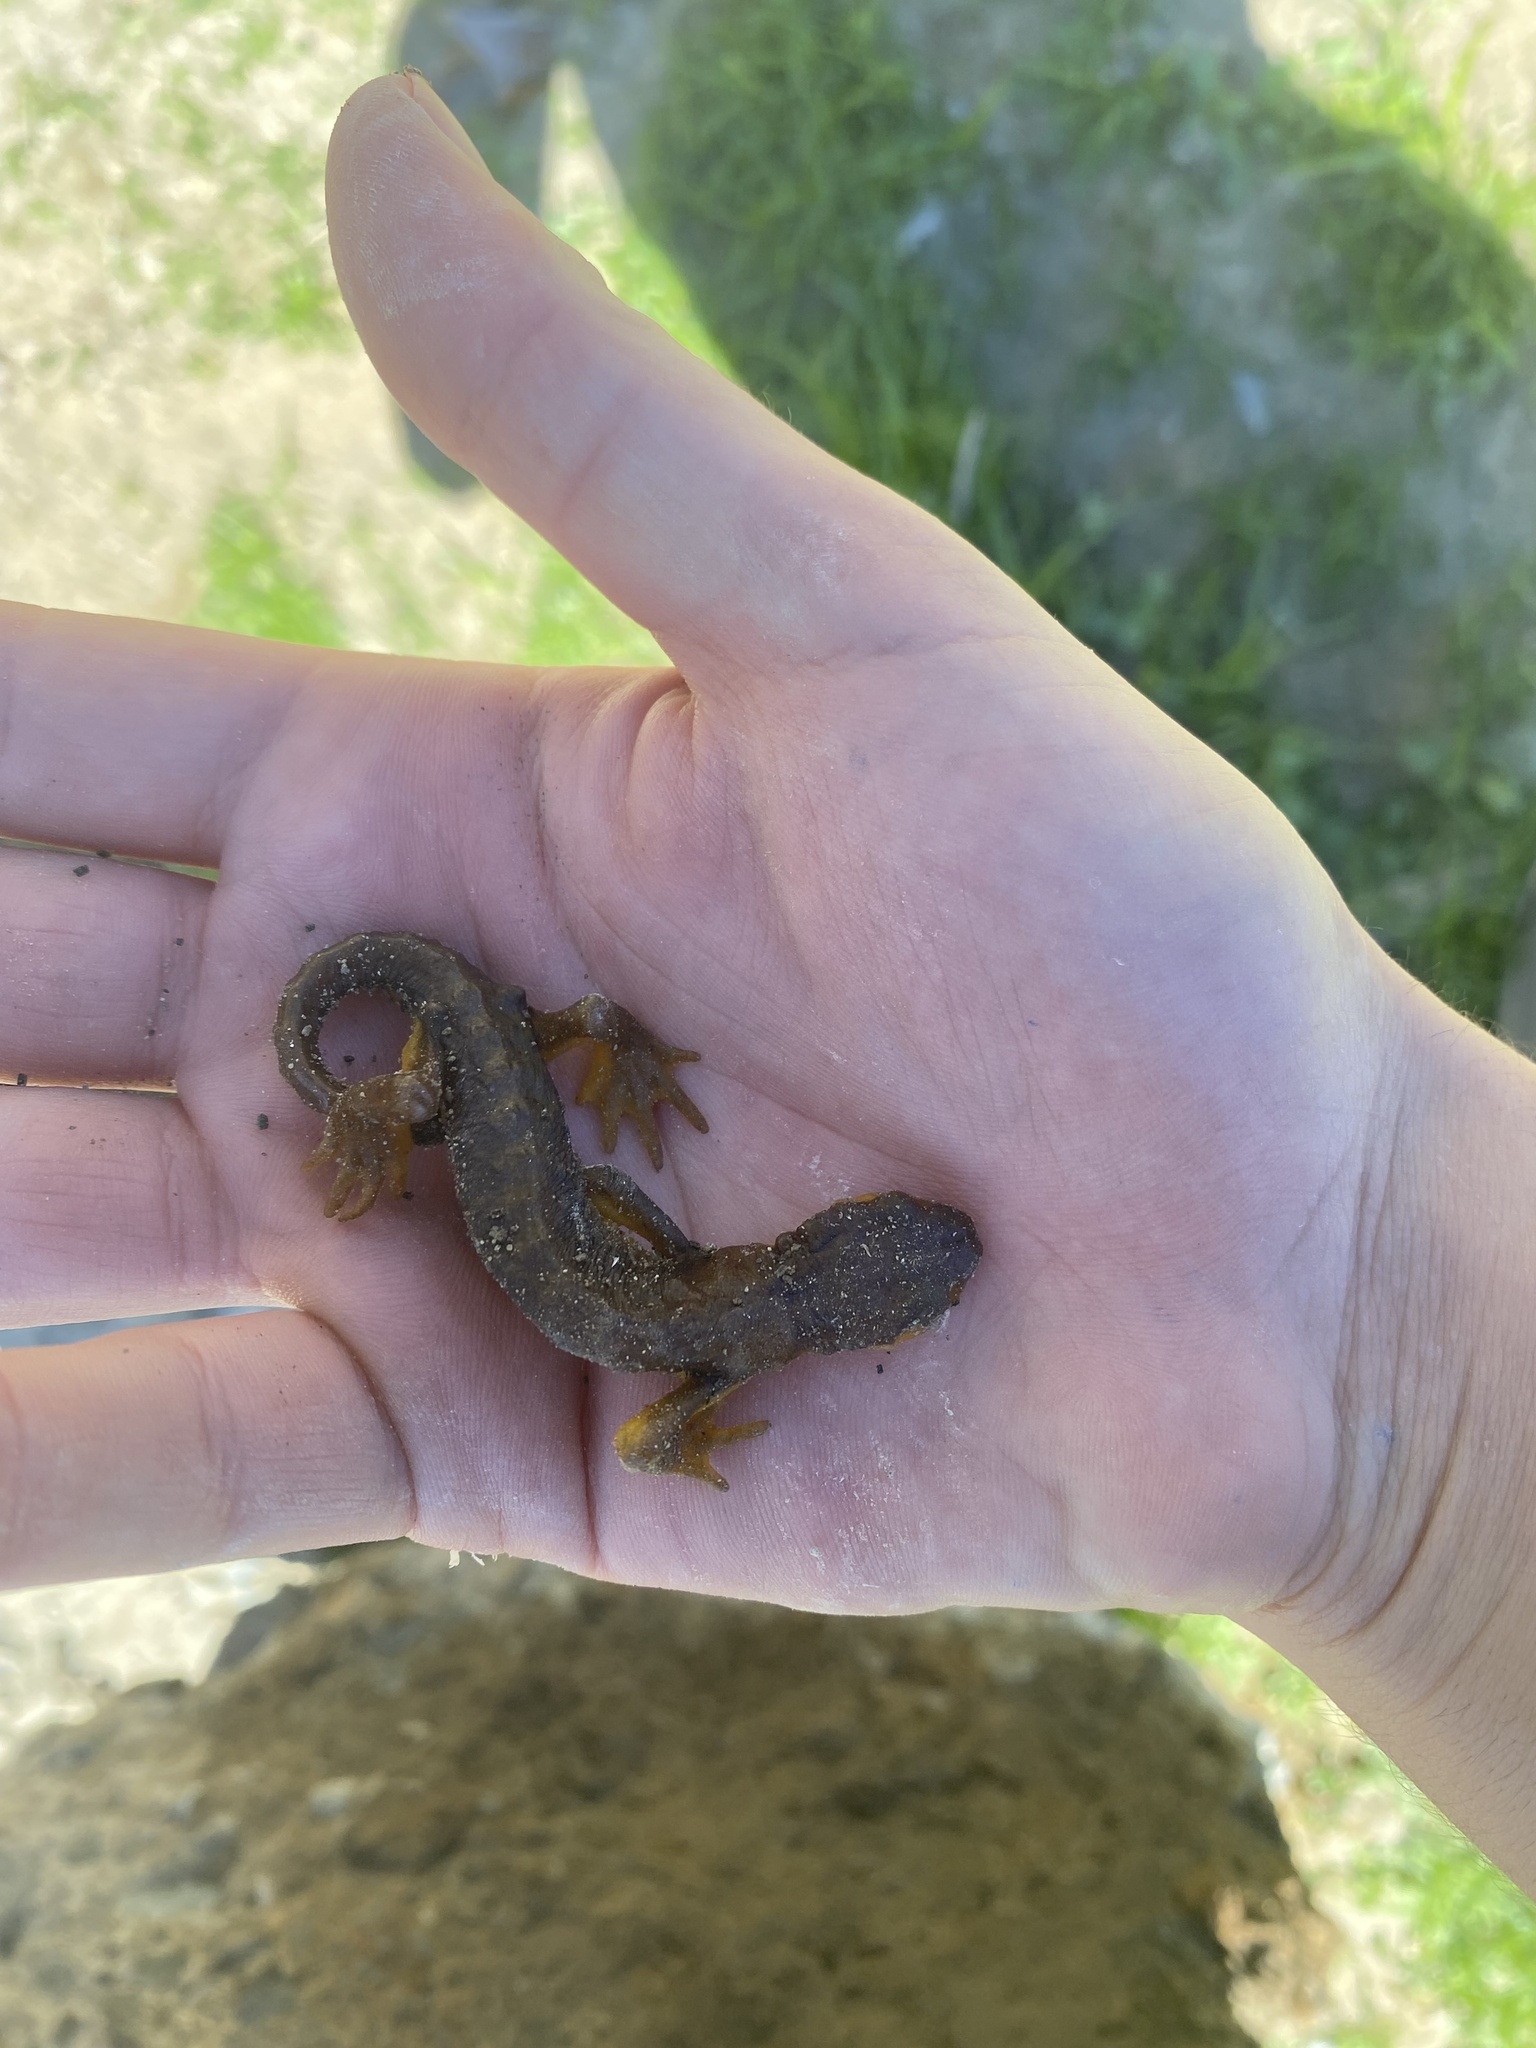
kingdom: Animalia
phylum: Chordata
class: Amphibia
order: Caudata
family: Salamandridae
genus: Taricha
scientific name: Taricha torosa
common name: California newt
